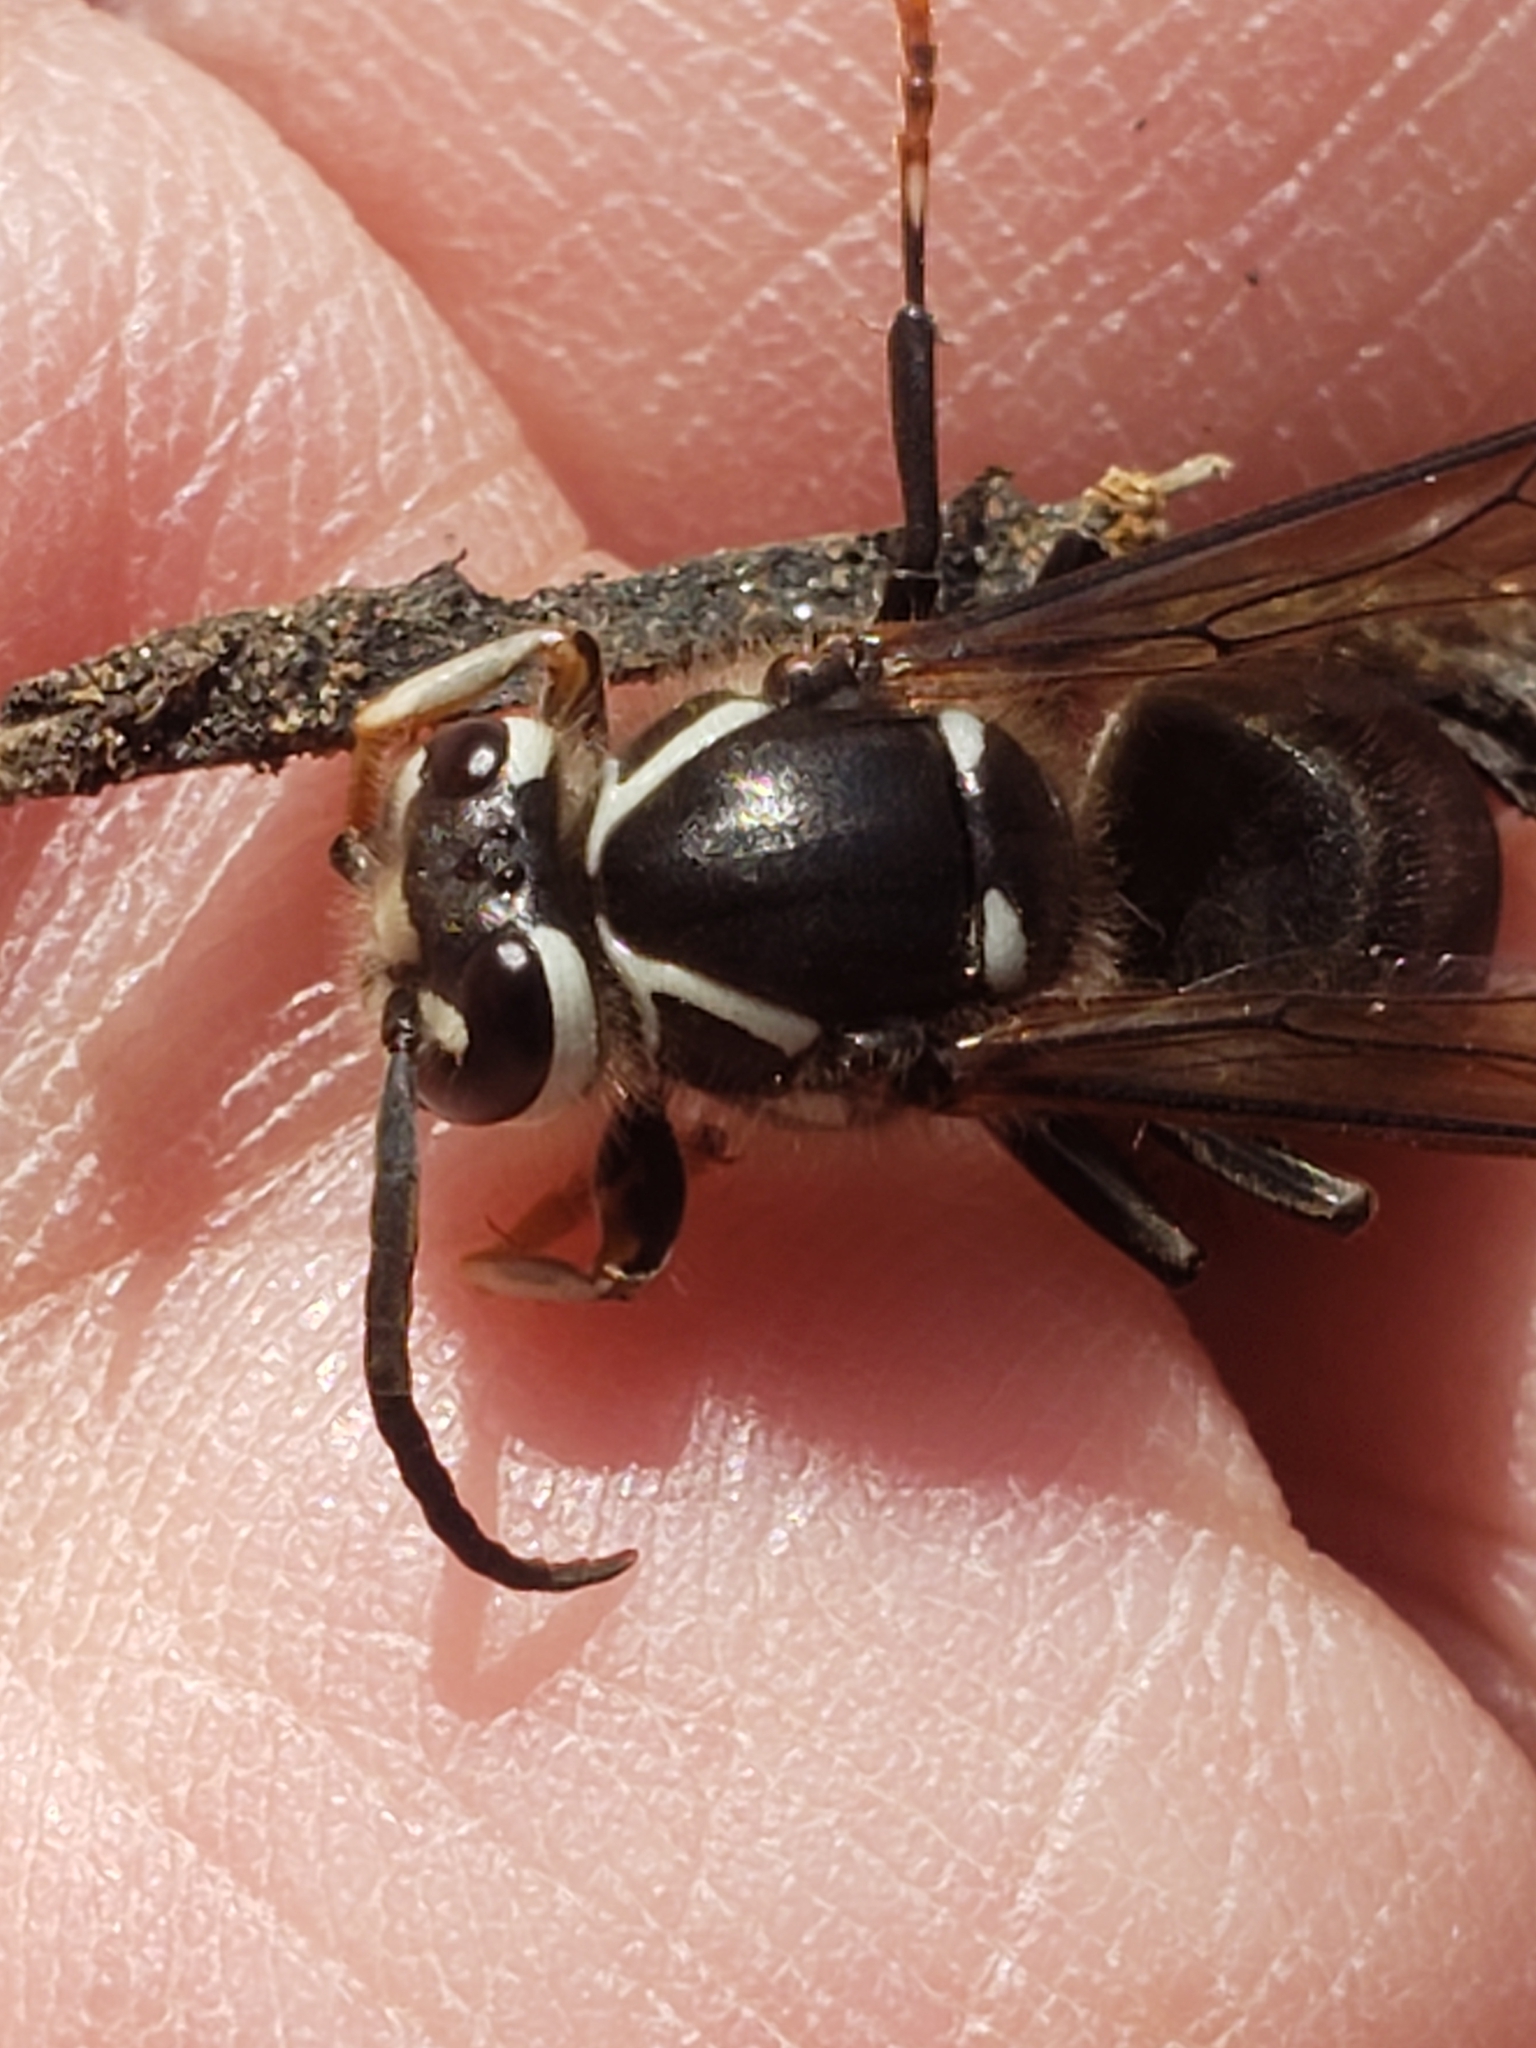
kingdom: Animalia
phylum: Arthropoda
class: Insecta
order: Hymenoptera
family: Vespidae
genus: Dolichovespula
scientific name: Dolichovespula maculata
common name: Bald-faced hornet
